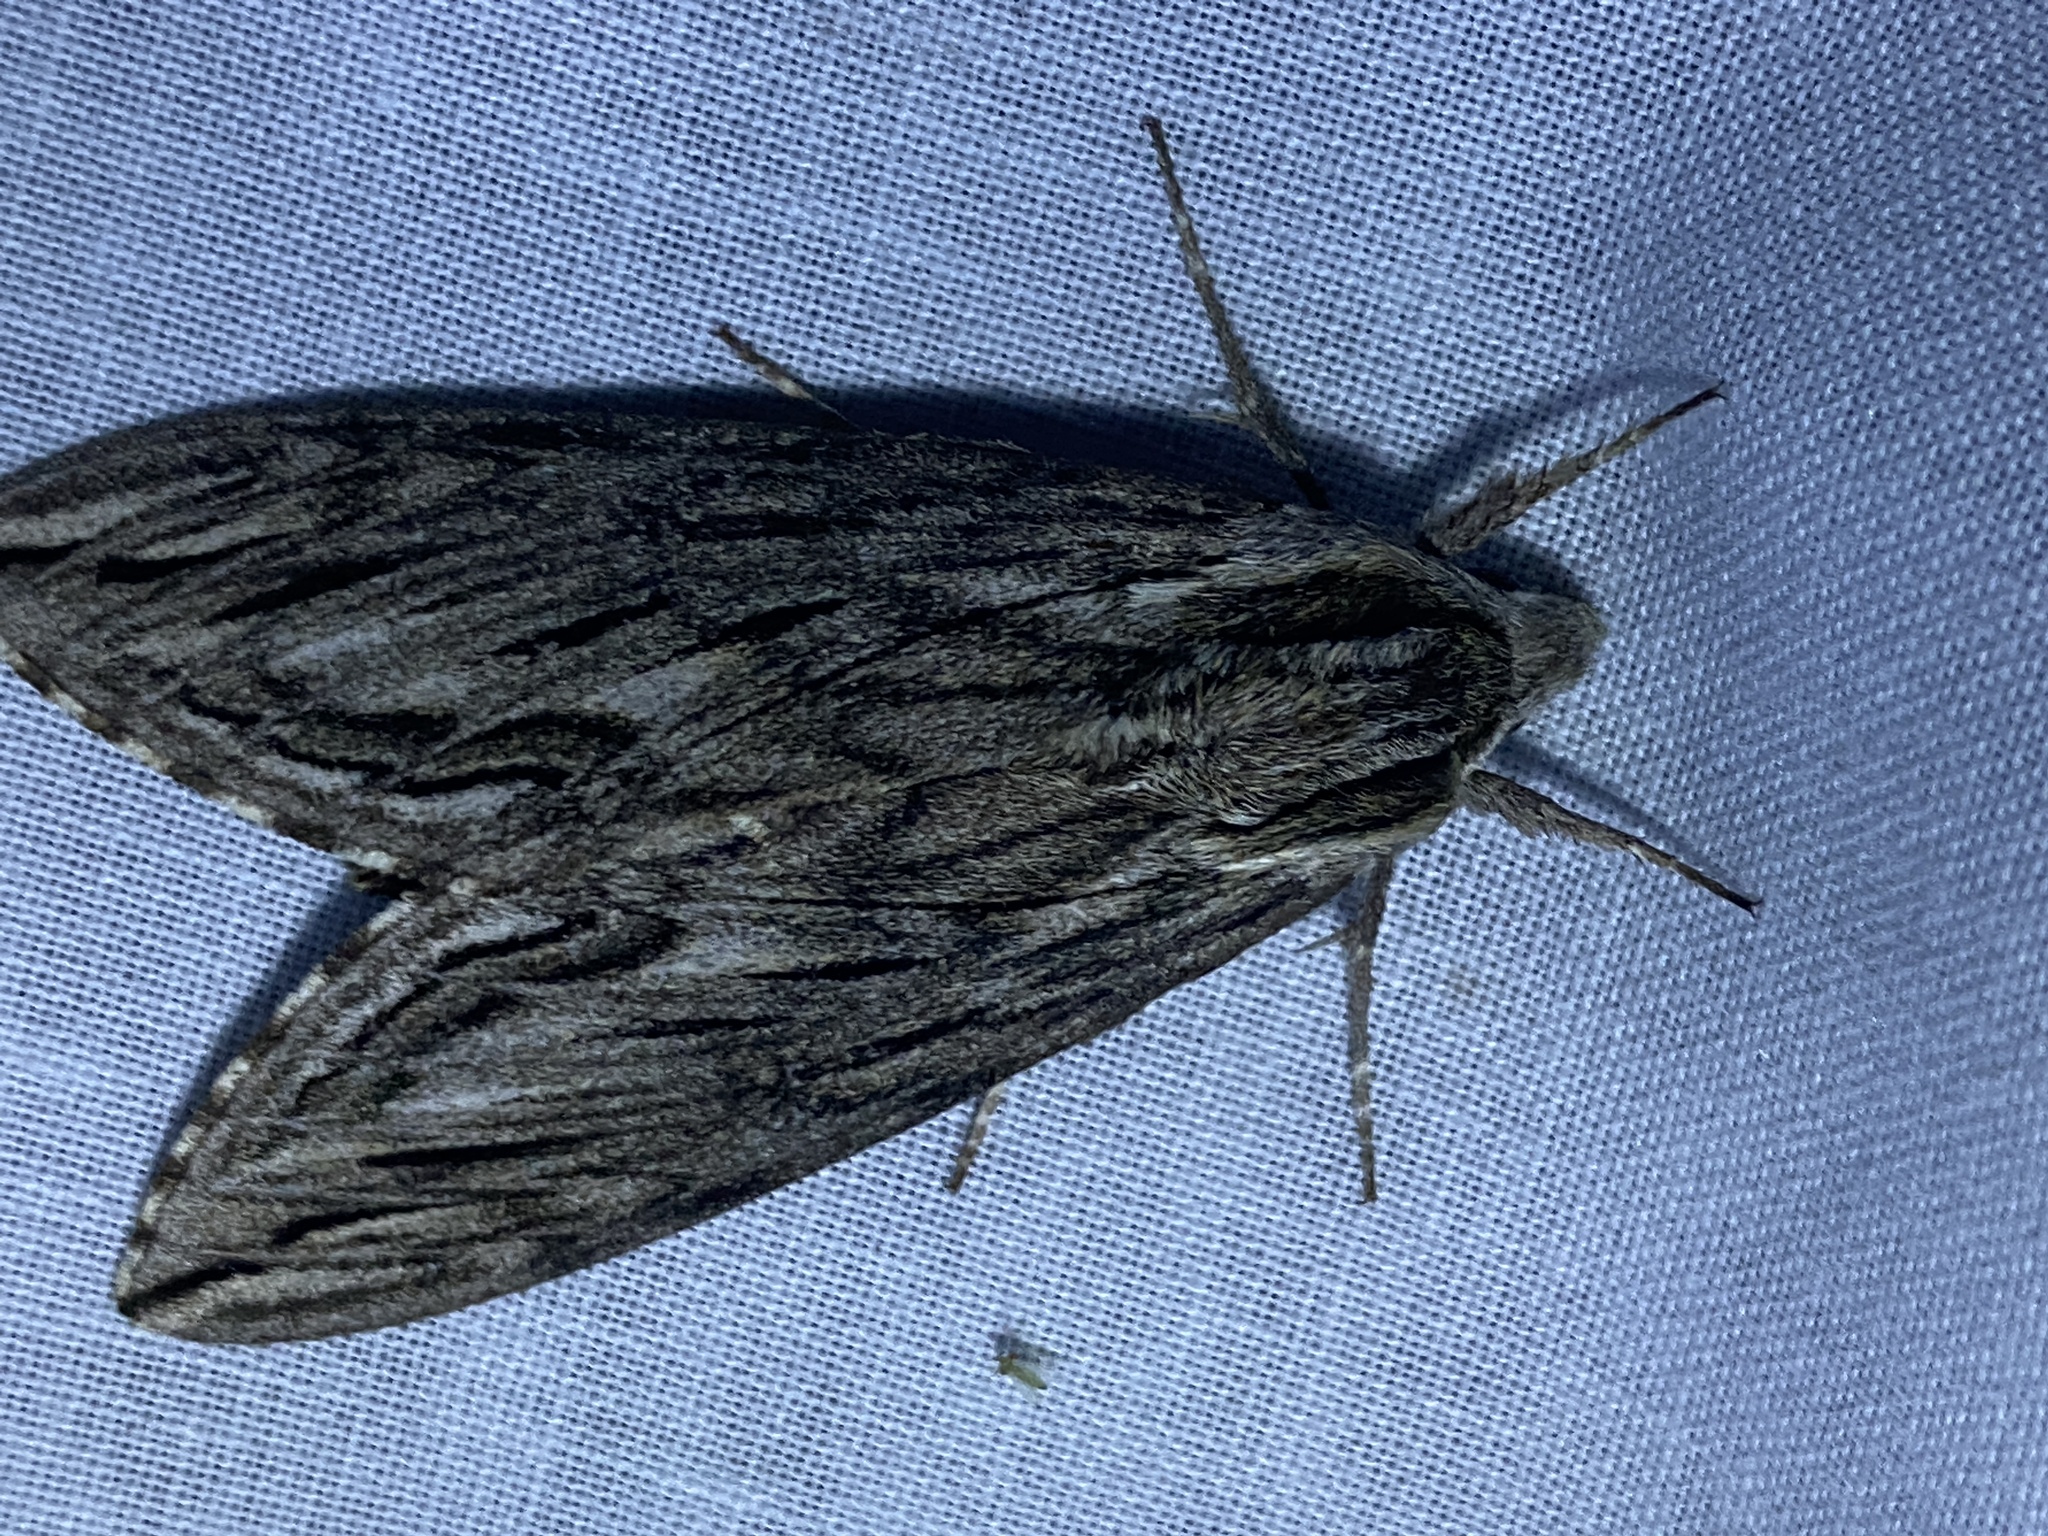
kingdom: Animalia
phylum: Arthropoda
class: Insecta
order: Lepidoptera
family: Sphingidae
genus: Sphinx
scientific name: Sphinx canadensis
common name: Canadian sphinx
